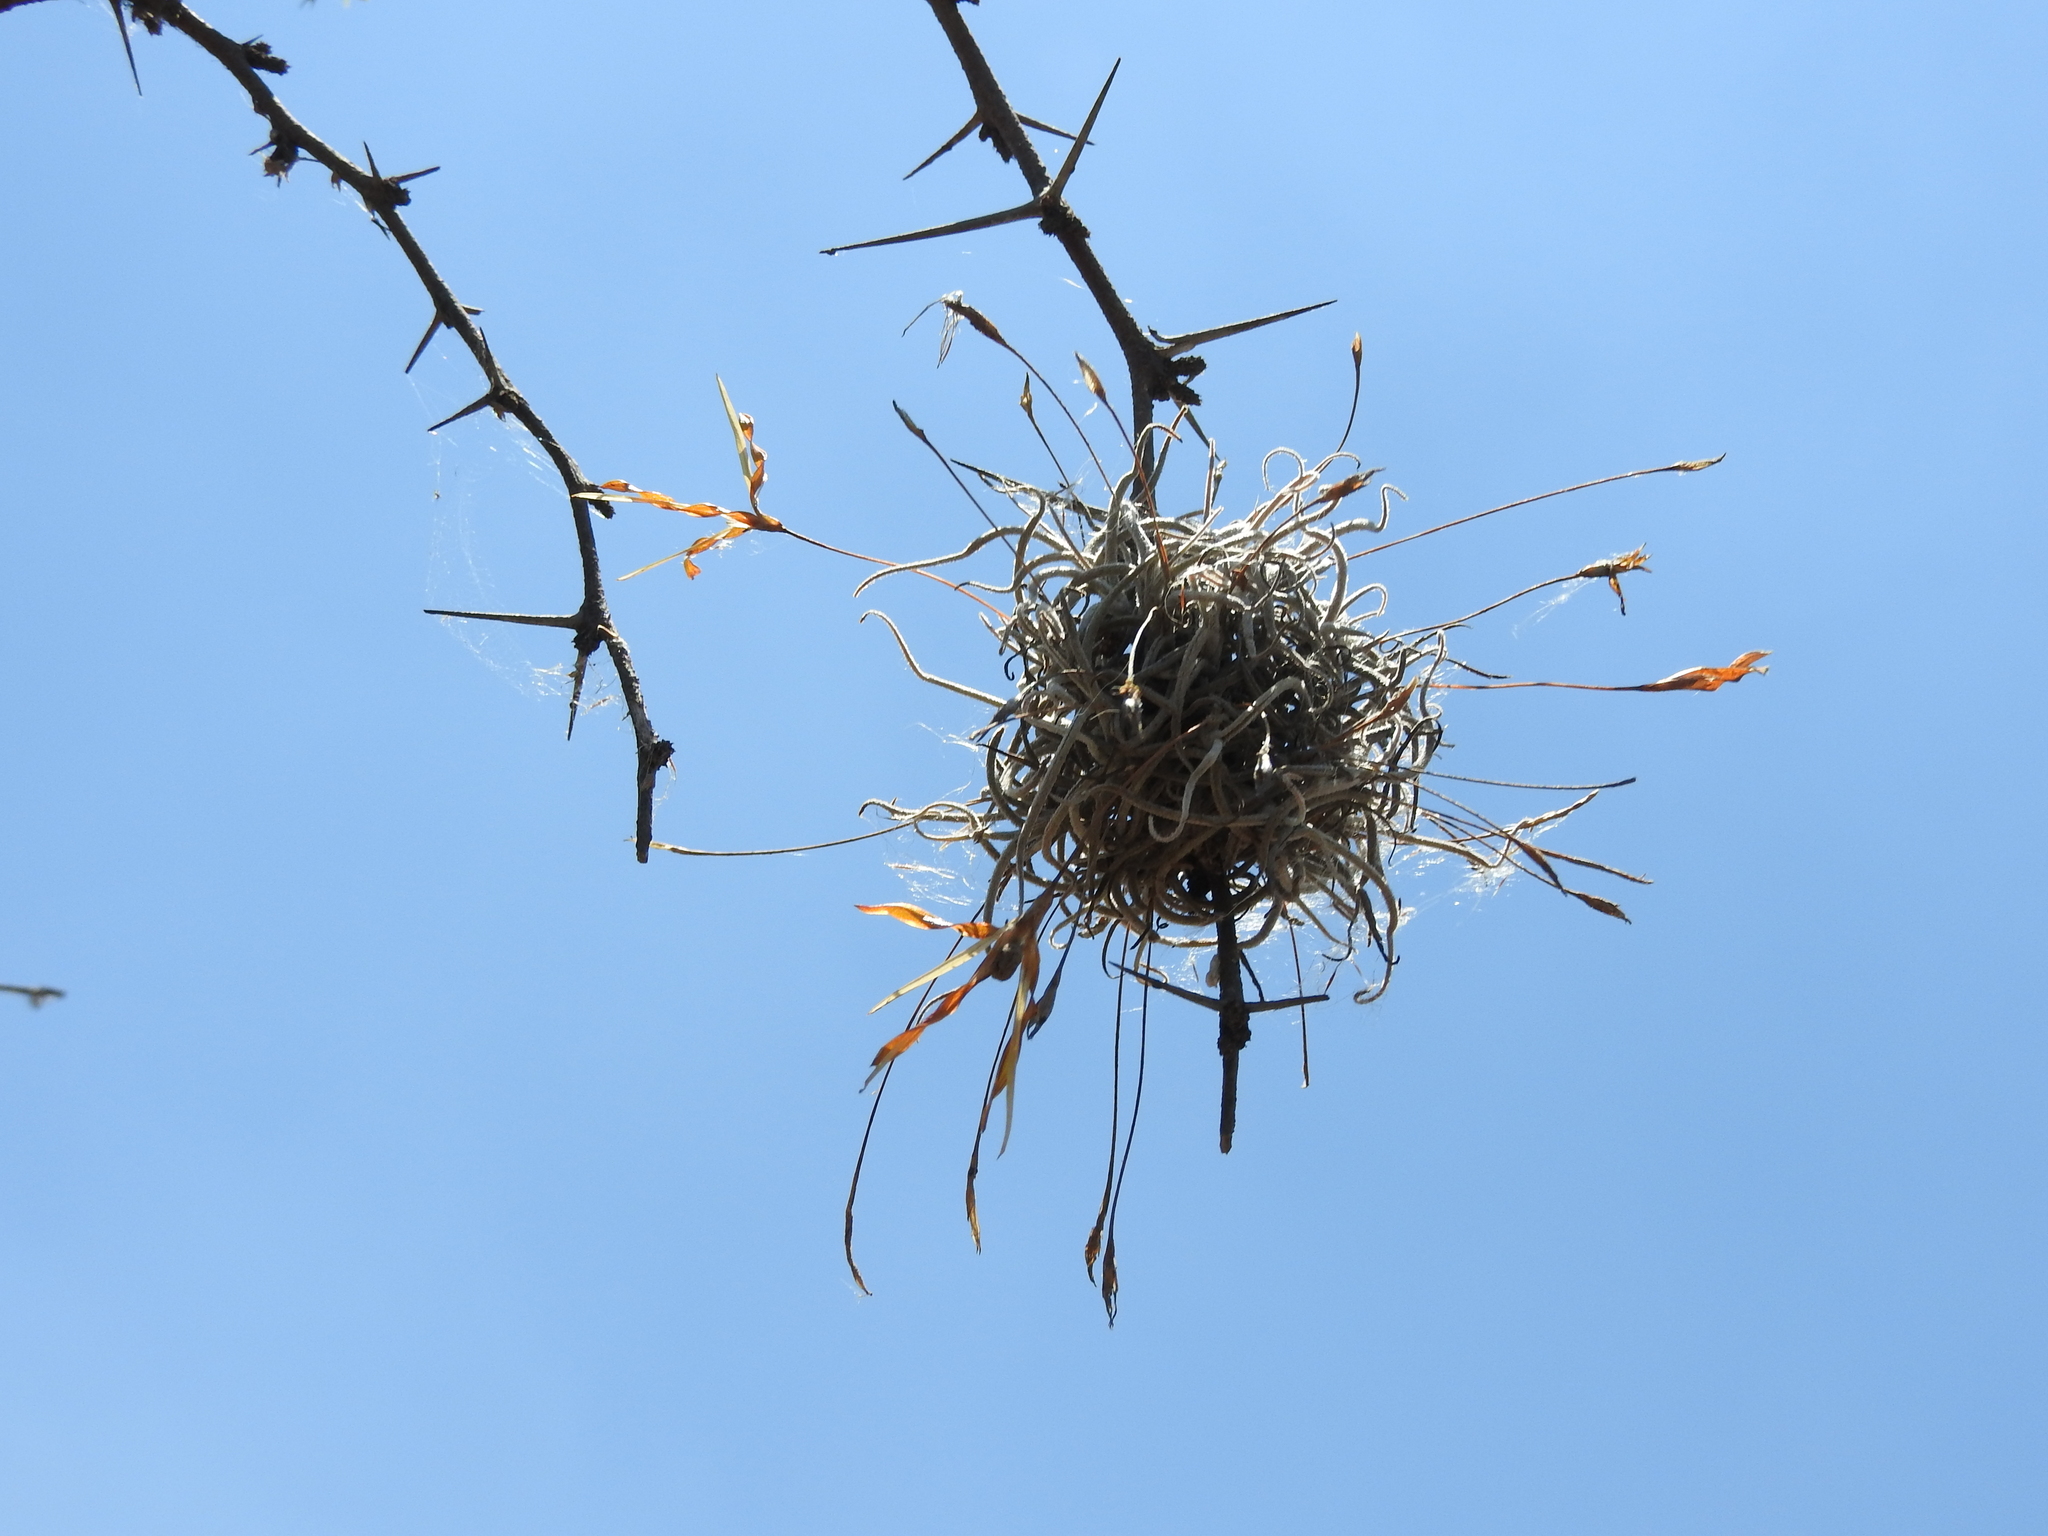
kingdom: Plantae
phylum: Tracheophyta
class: Liliopsida
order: Poales
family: Bromeliaceae
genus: Tillandsia
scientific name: Tillandsia recurvata
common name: Small ballmoss
